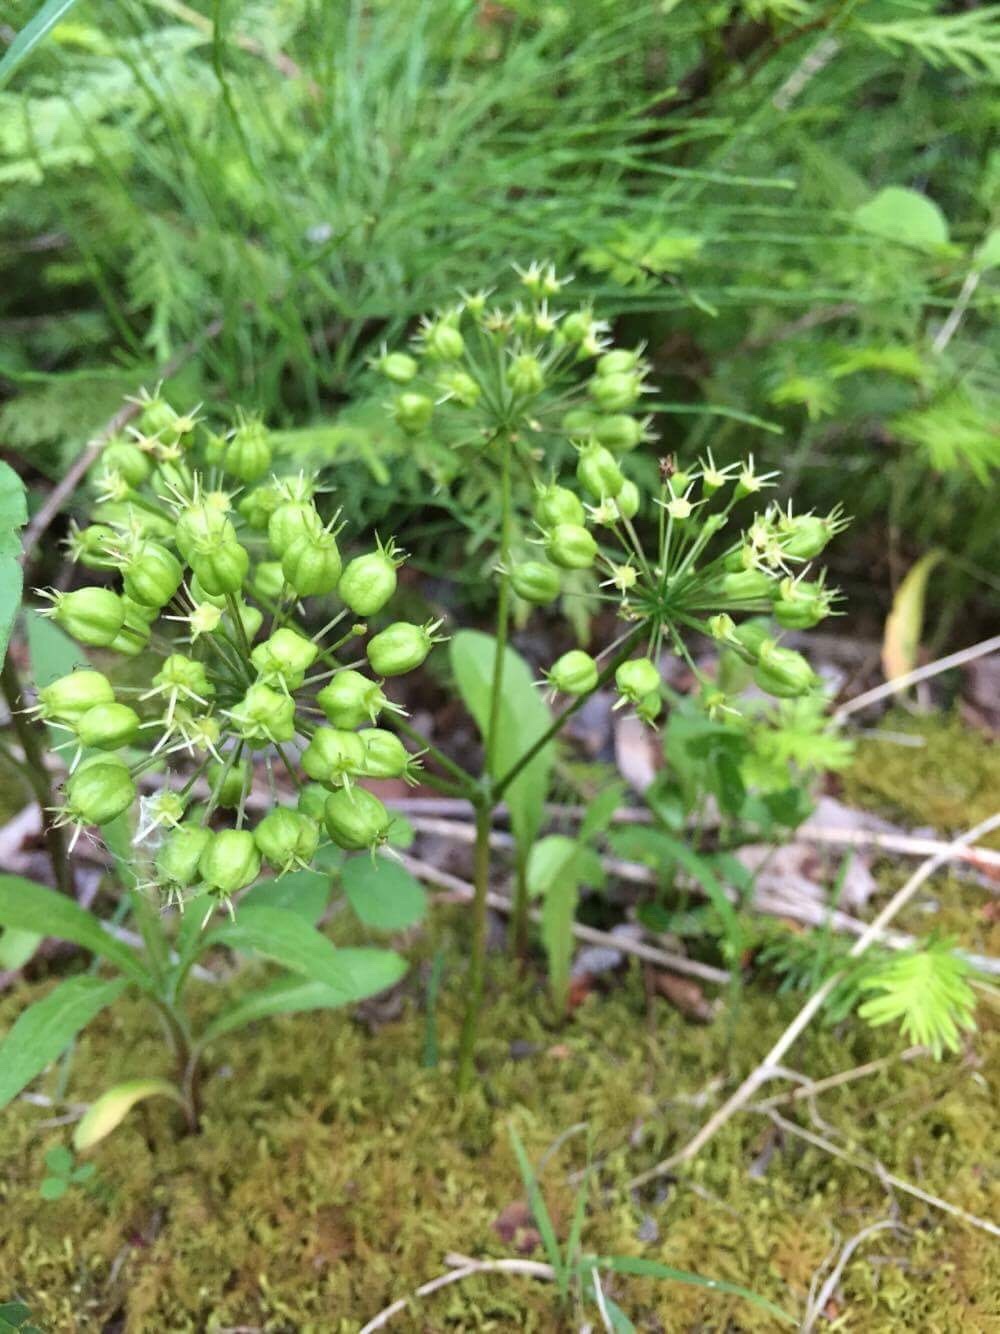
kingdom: Plantae
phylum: Tracheophyta
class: Magnoliopsida
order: Apiales
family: Araliaceae
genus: Aralia
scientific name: Aralia nudicaulis
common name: Wild sarsaparilla
